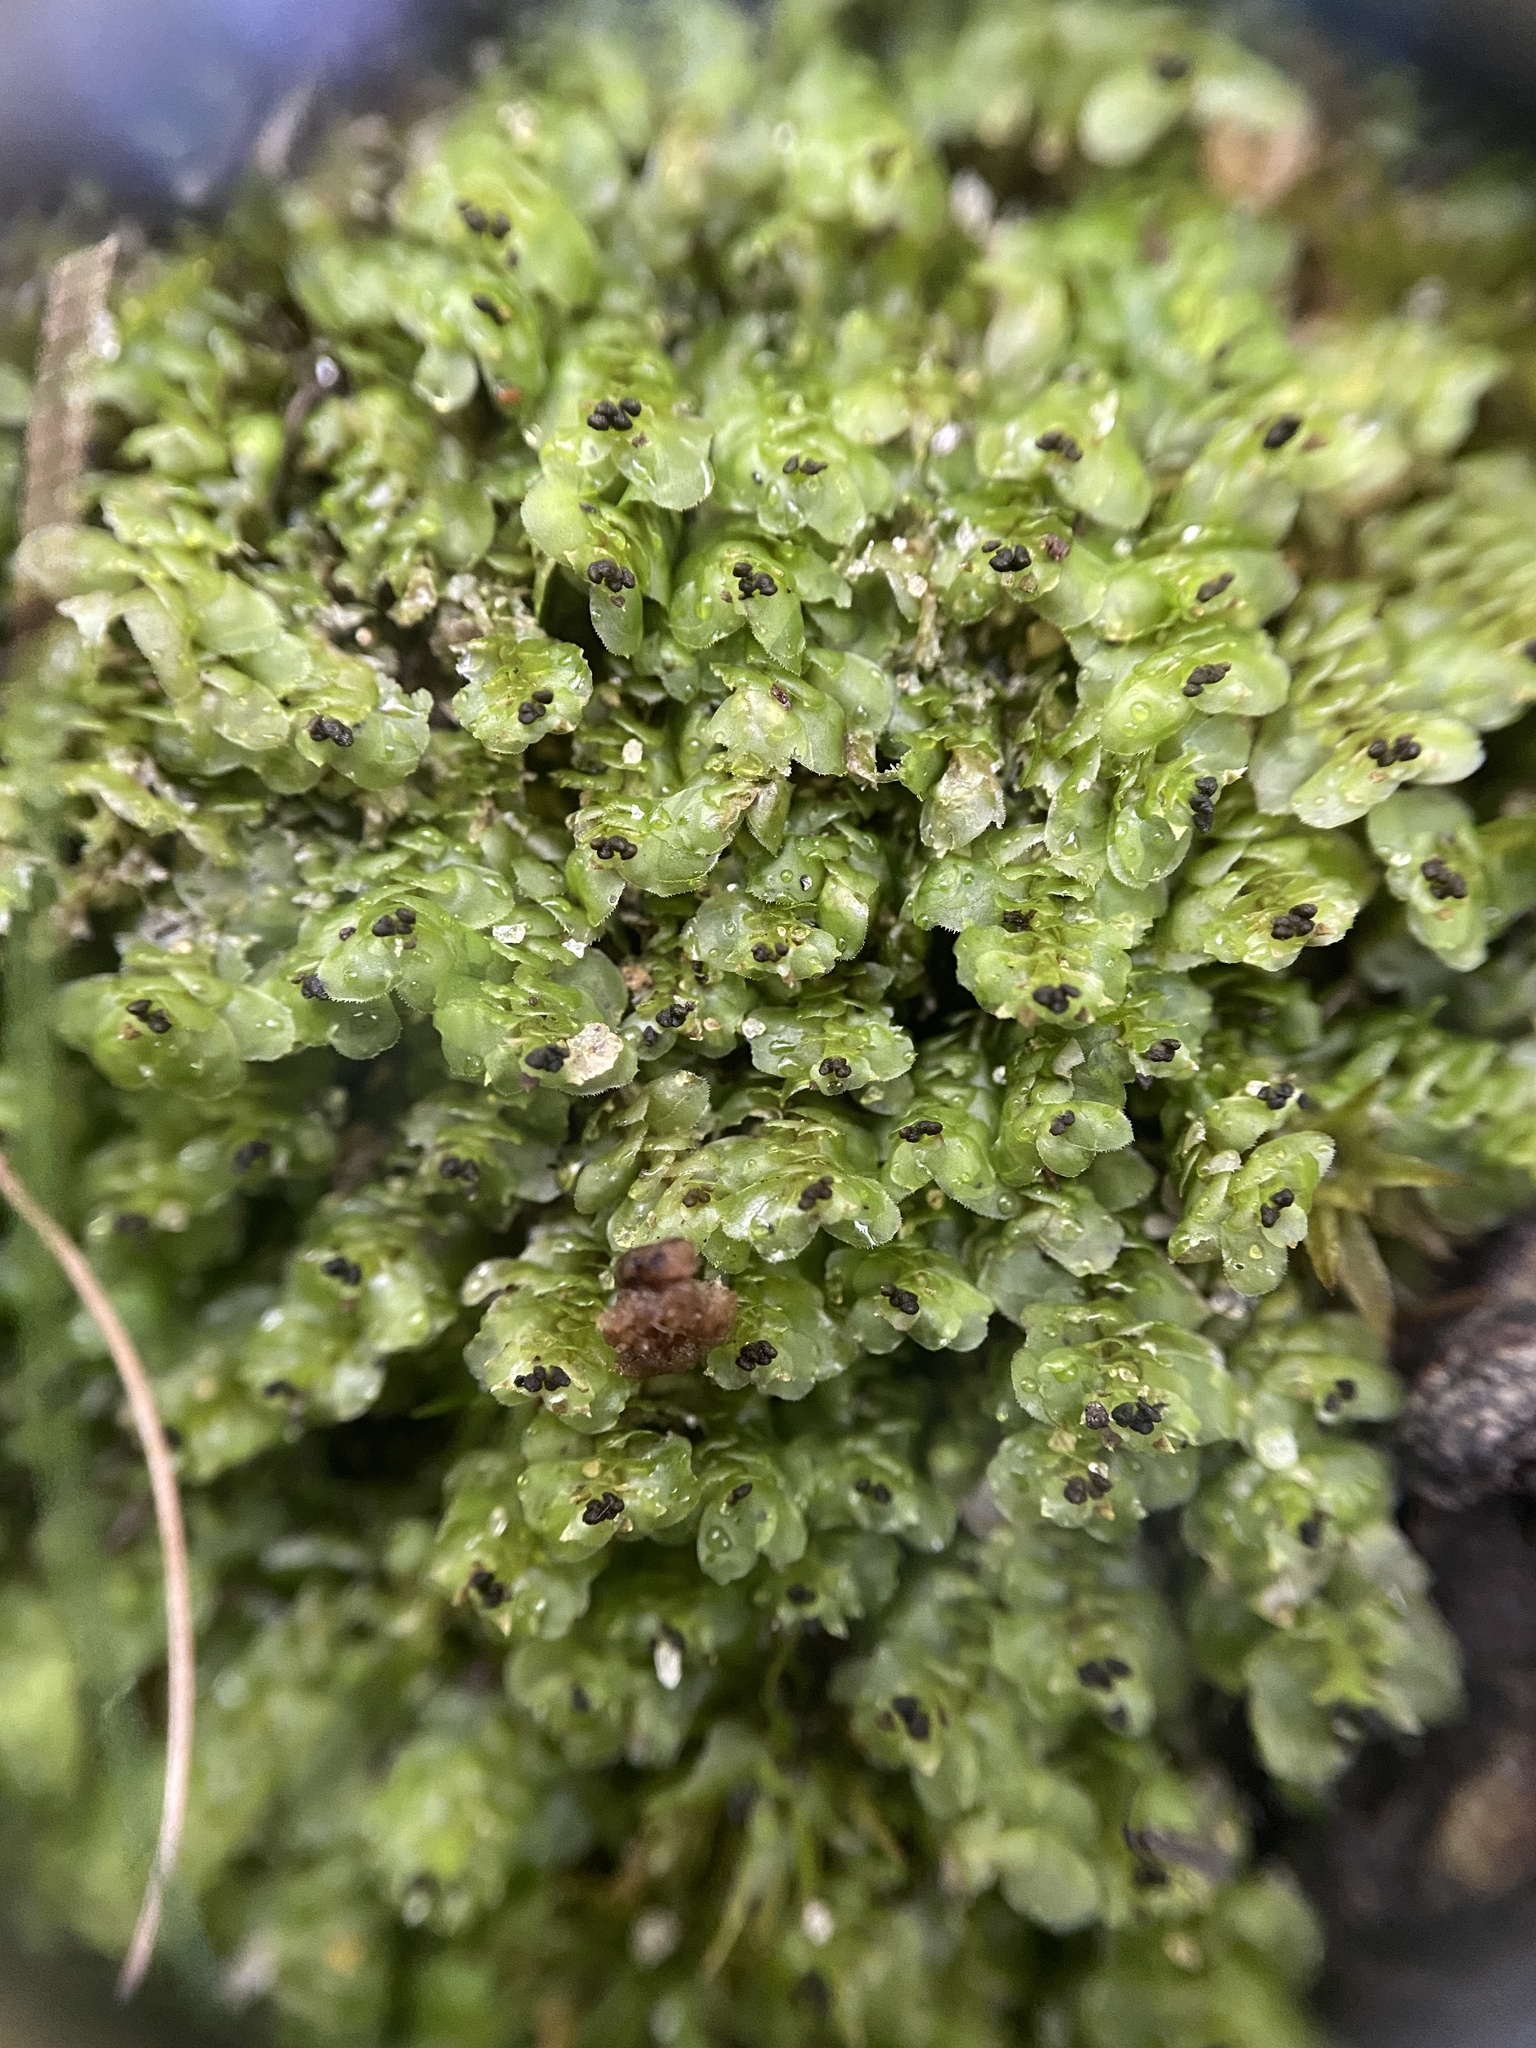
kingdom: Plantae
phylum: Marchantiophyta
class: Jungermanniopsida
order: Jungermanniales
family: Scapaniaceae
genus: Scapania
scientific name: Scapania nemorea
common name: Grove earwort
